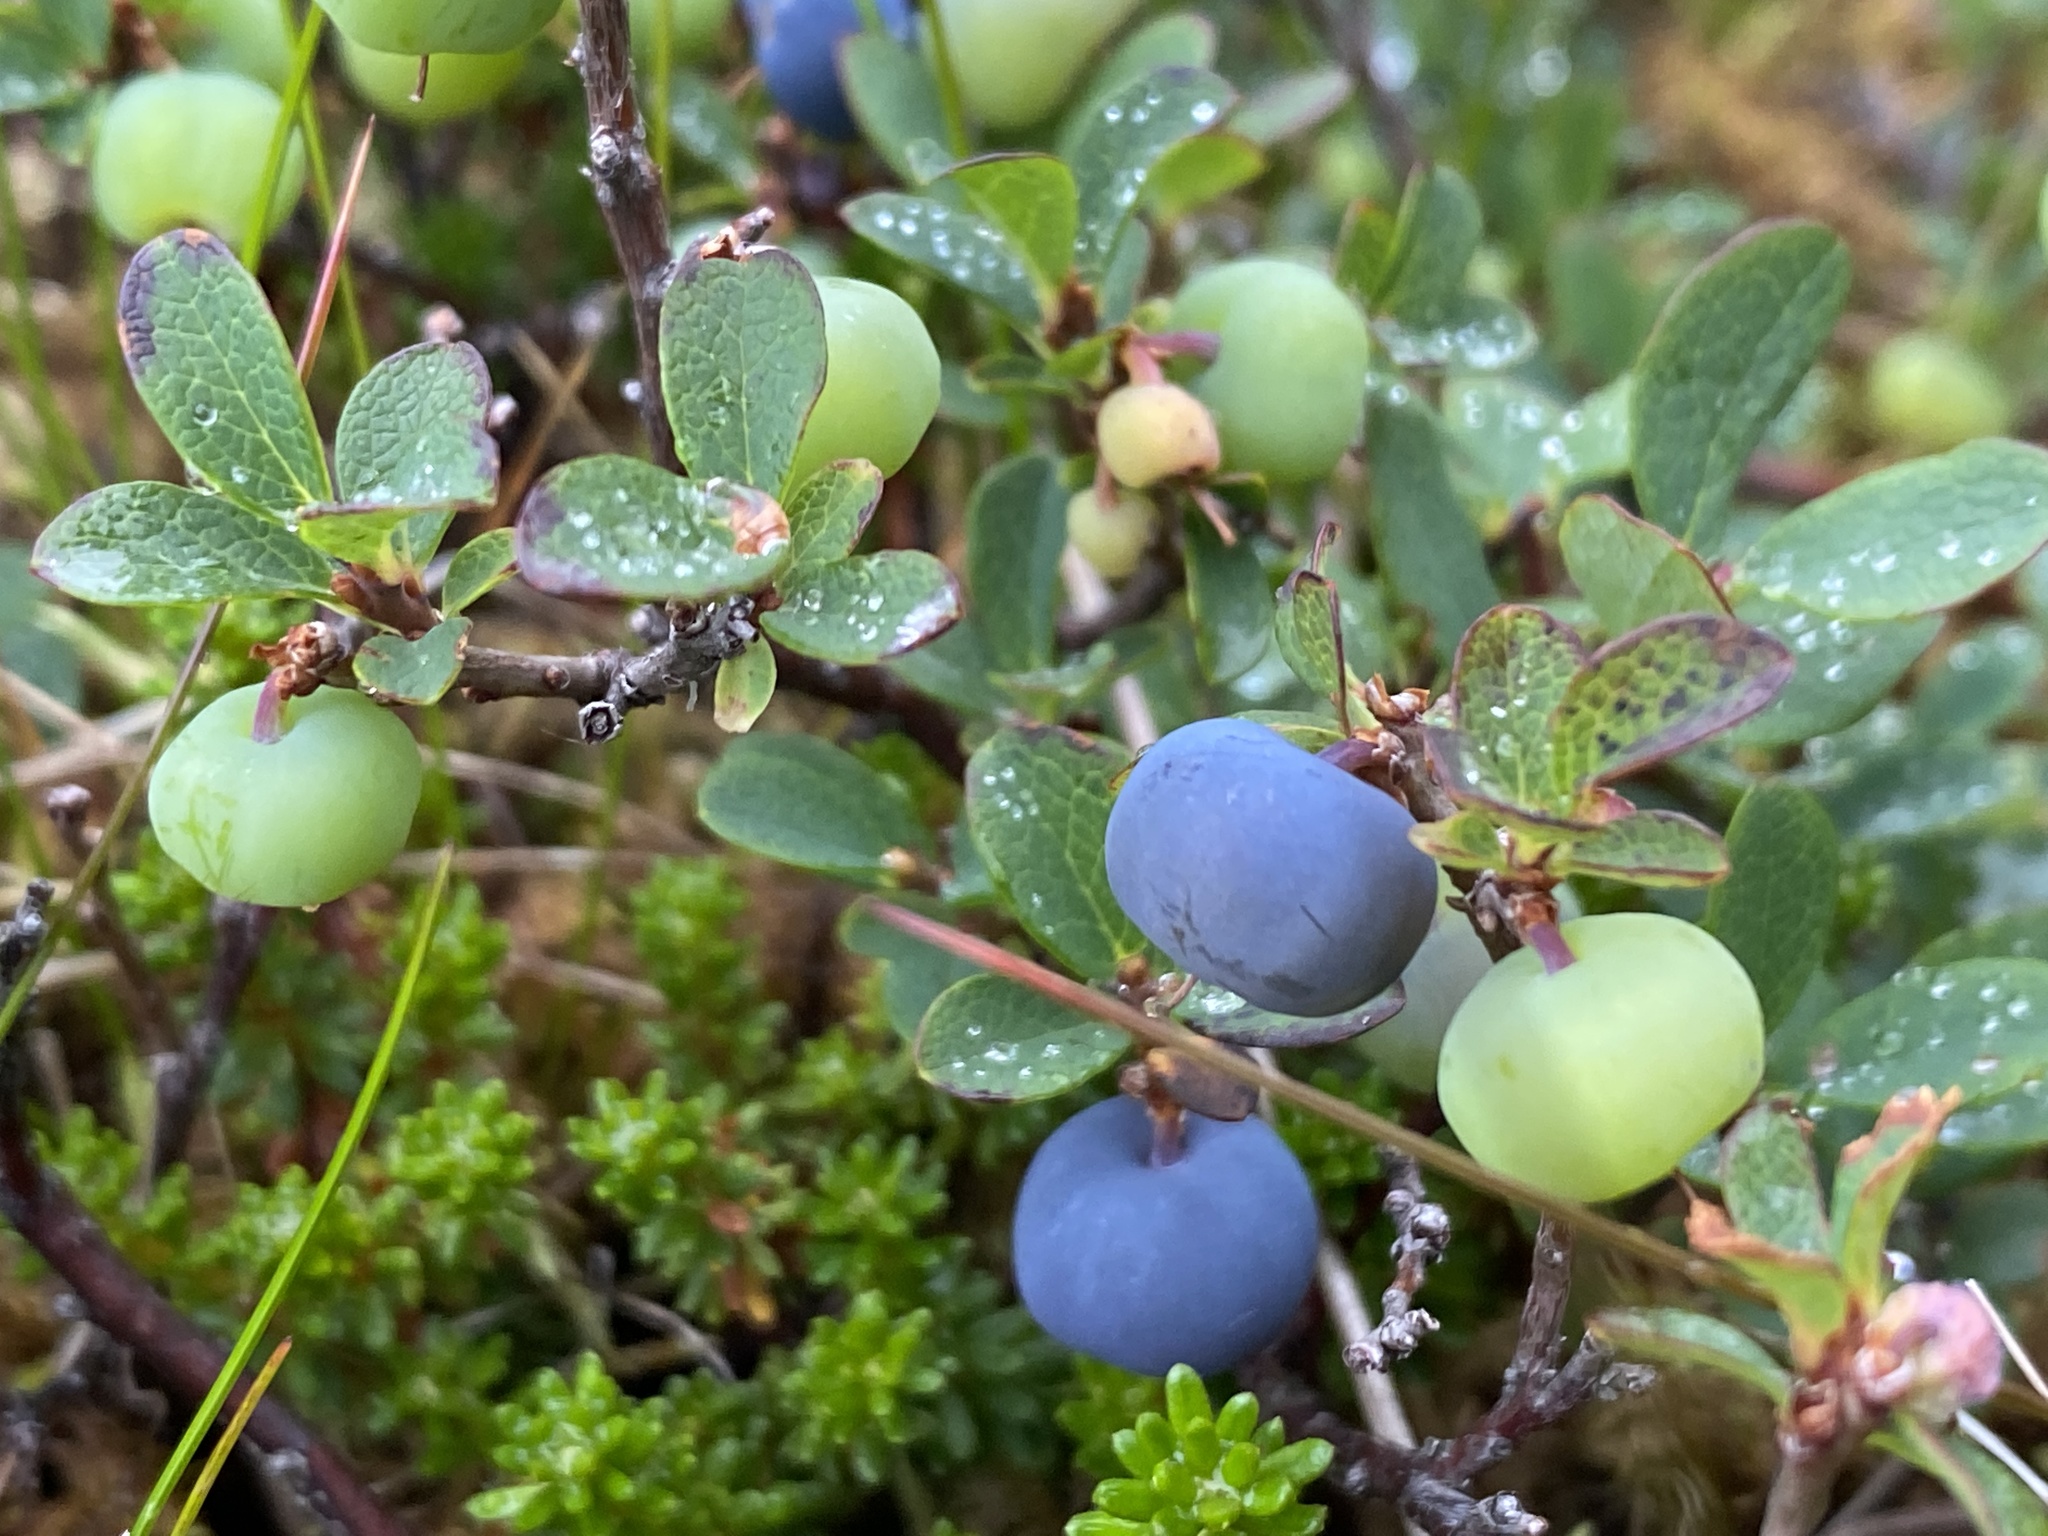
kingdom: Plantae
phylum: Tracheophyta
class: Magnoliopsida
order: Ericales
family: Ericaceae
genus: Vaccinium
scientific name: Vaccinium uliginosum
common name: Bog bilberry
